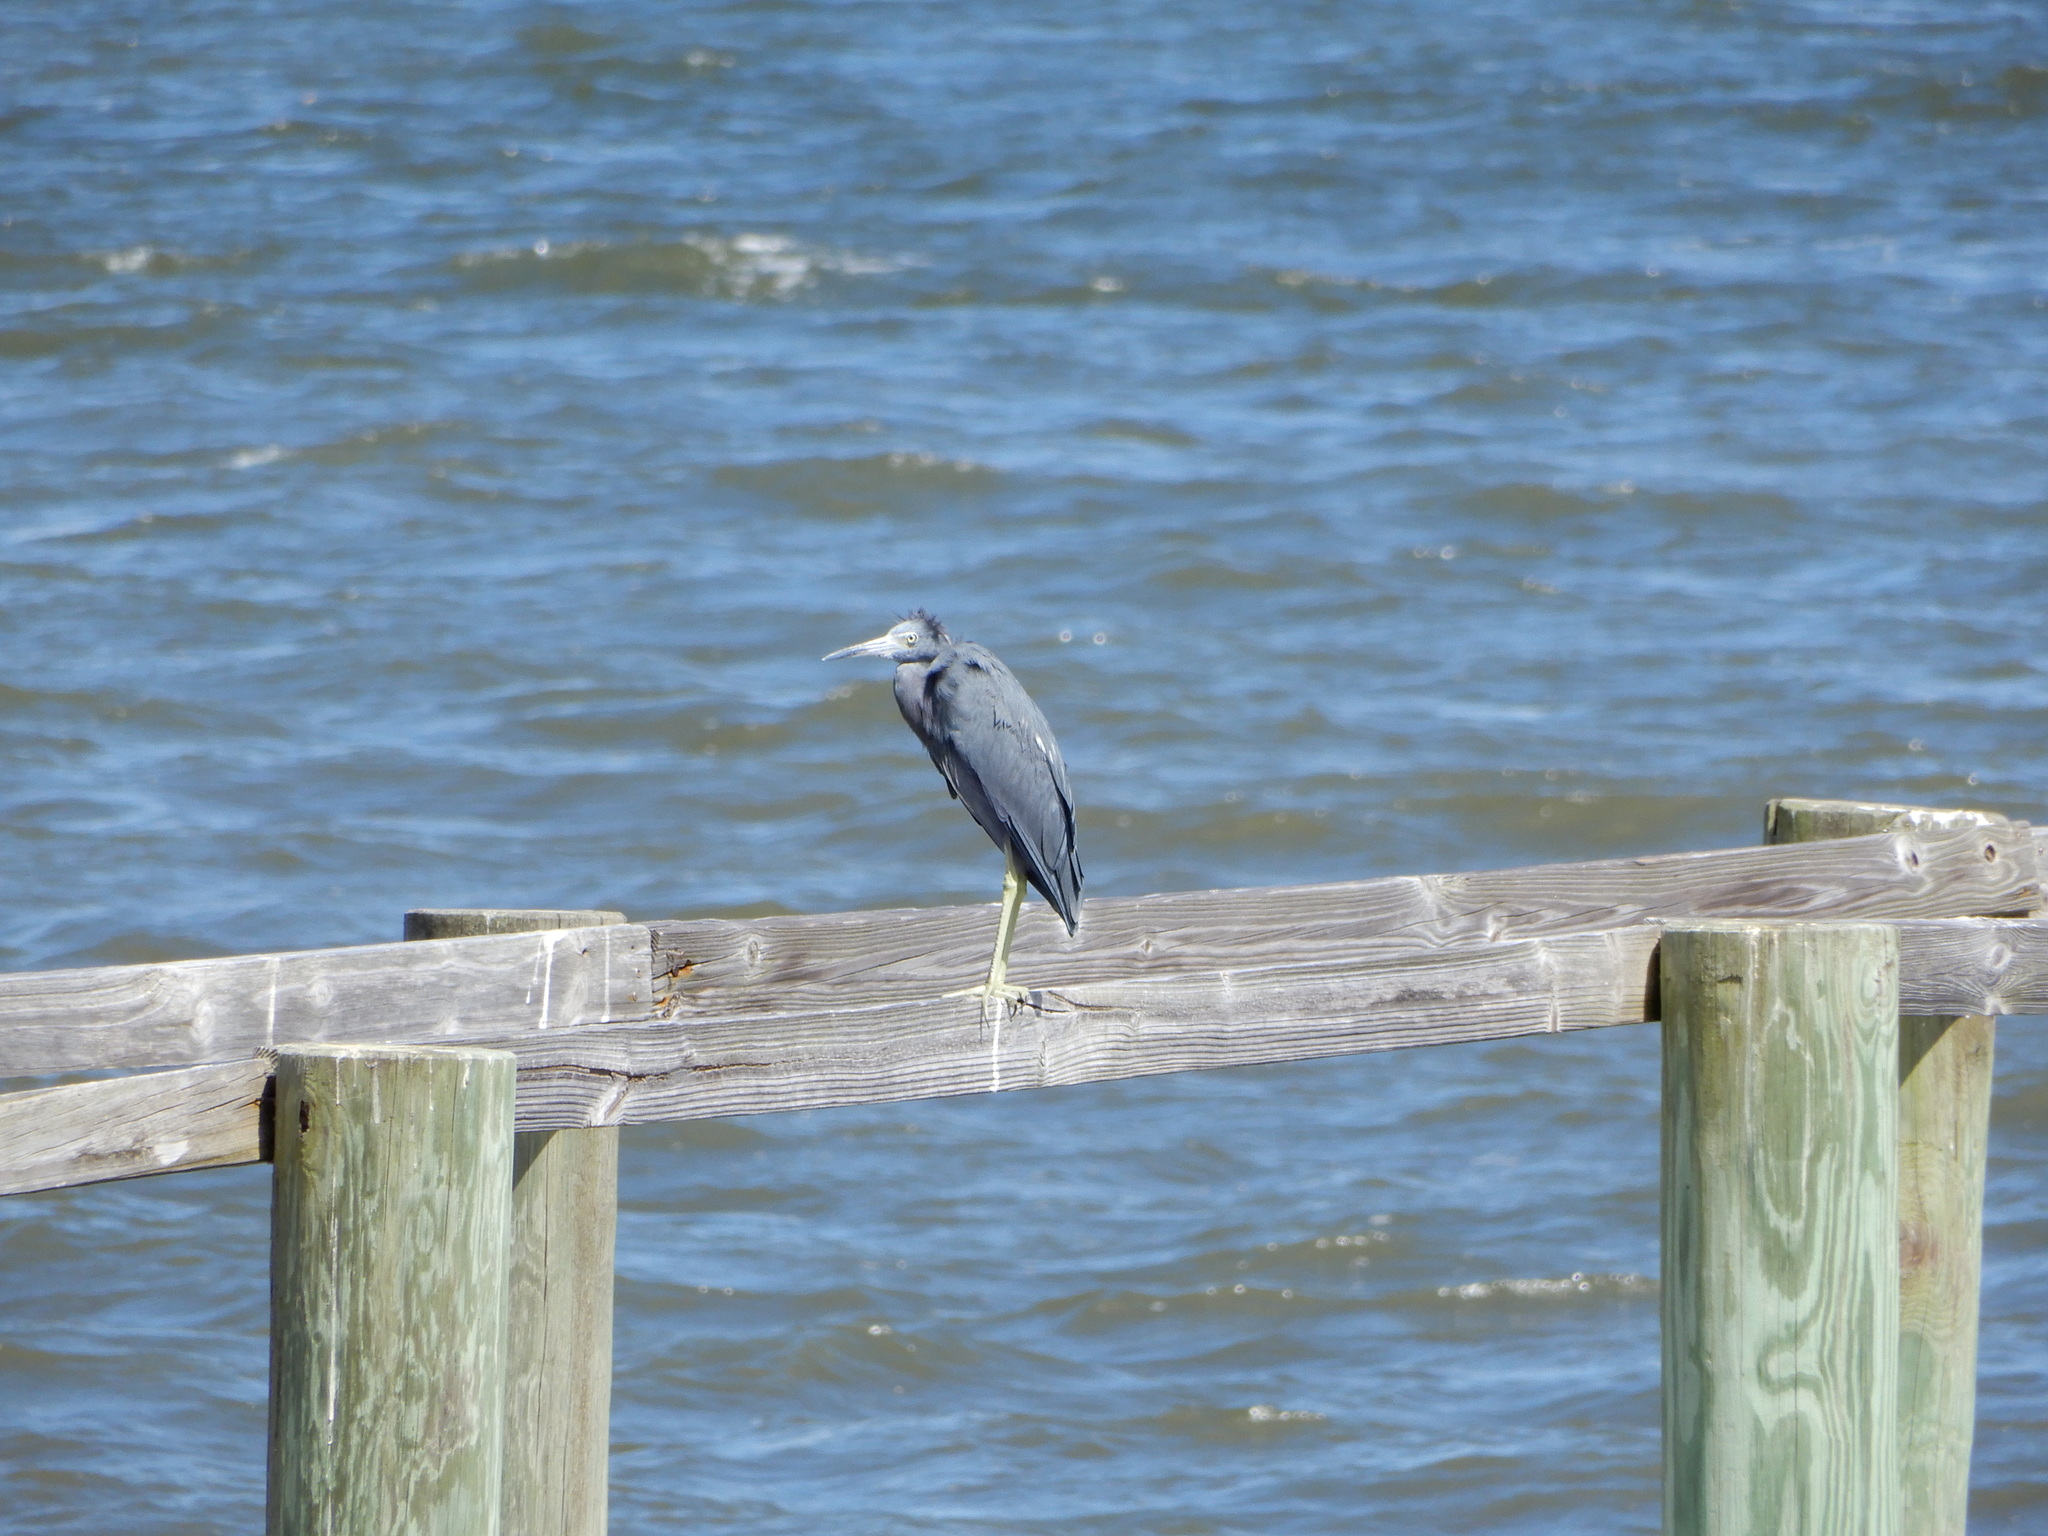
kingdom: Animalia
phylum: Chordata
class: Aves
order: Pelecaniformes
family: Ardeidae
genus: Egretta
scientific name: Egretta caerulea
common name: Little blue heron
